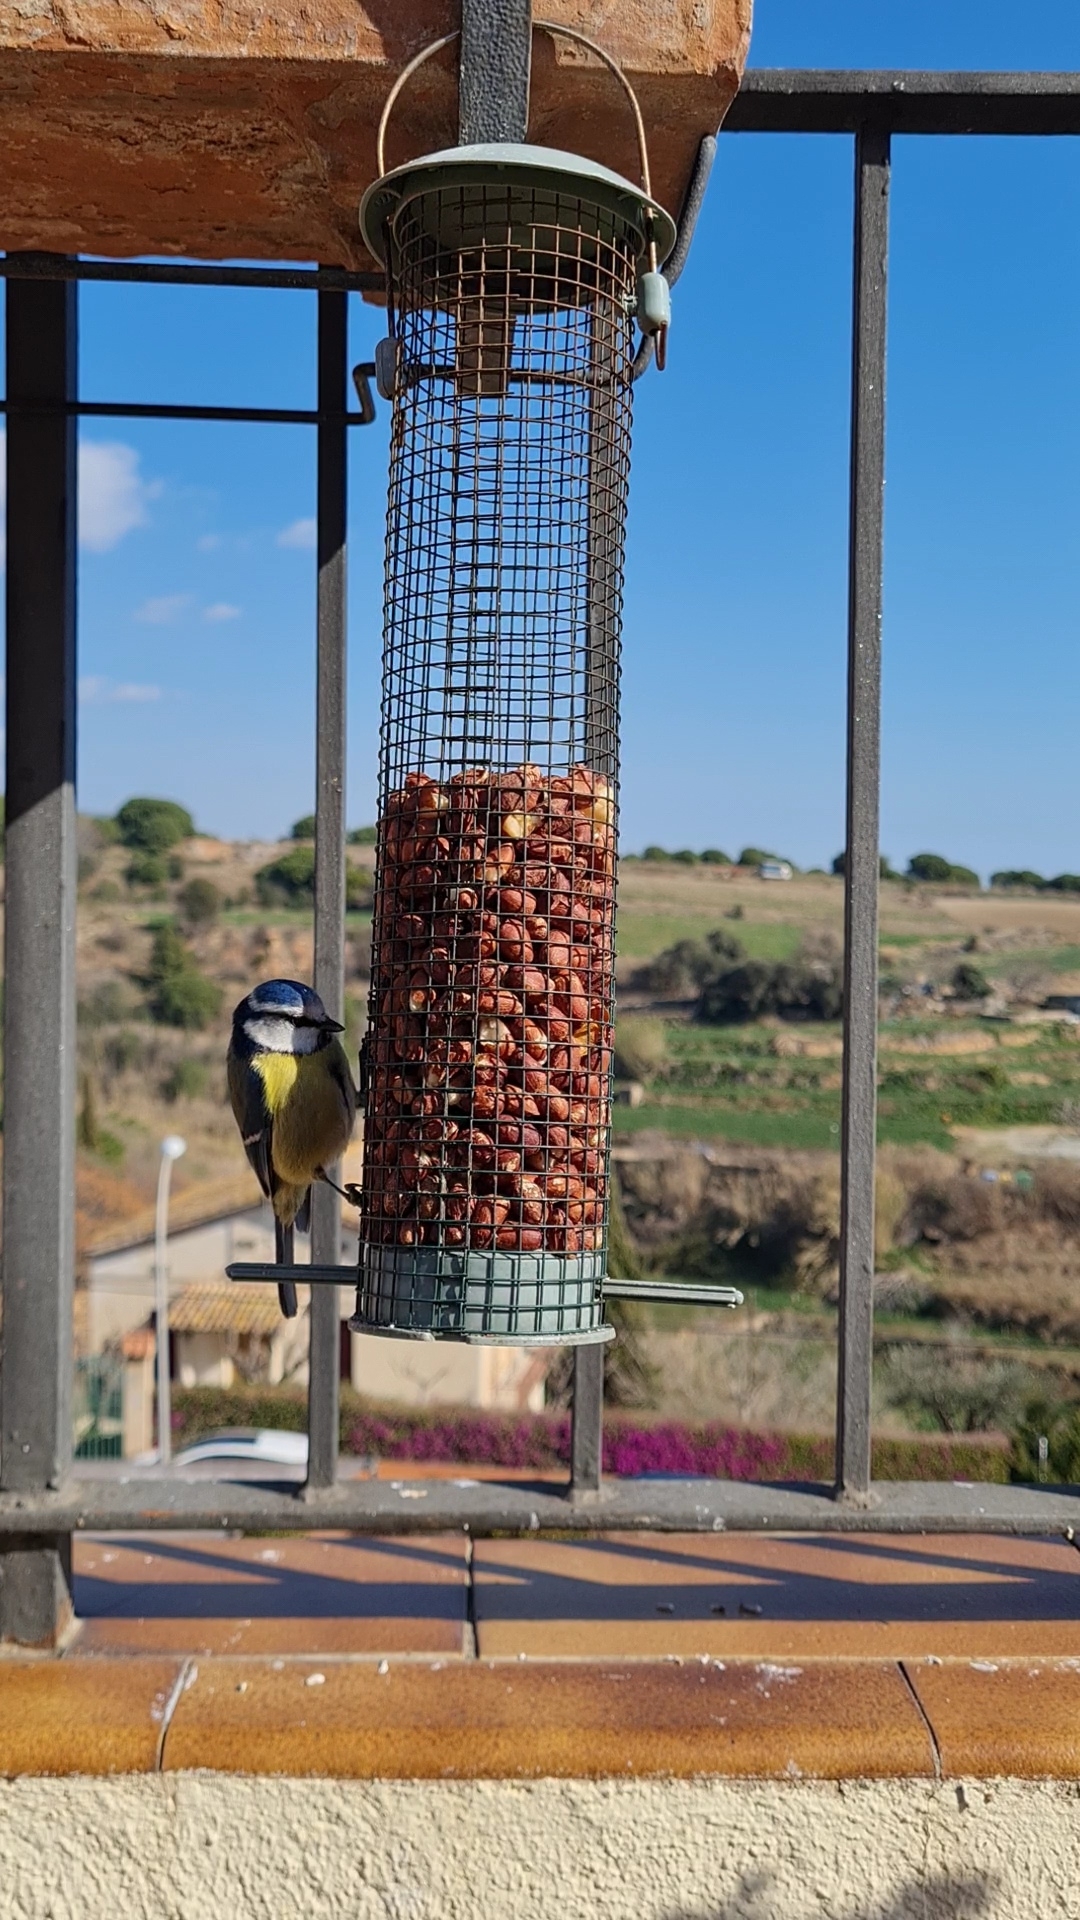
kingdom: Animalia
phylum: Chordata
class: Aves
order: Passeriformes
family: Paridae
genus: Cyanistes
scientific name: Cyanistes caeruleus
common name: Eurasian blue tit
